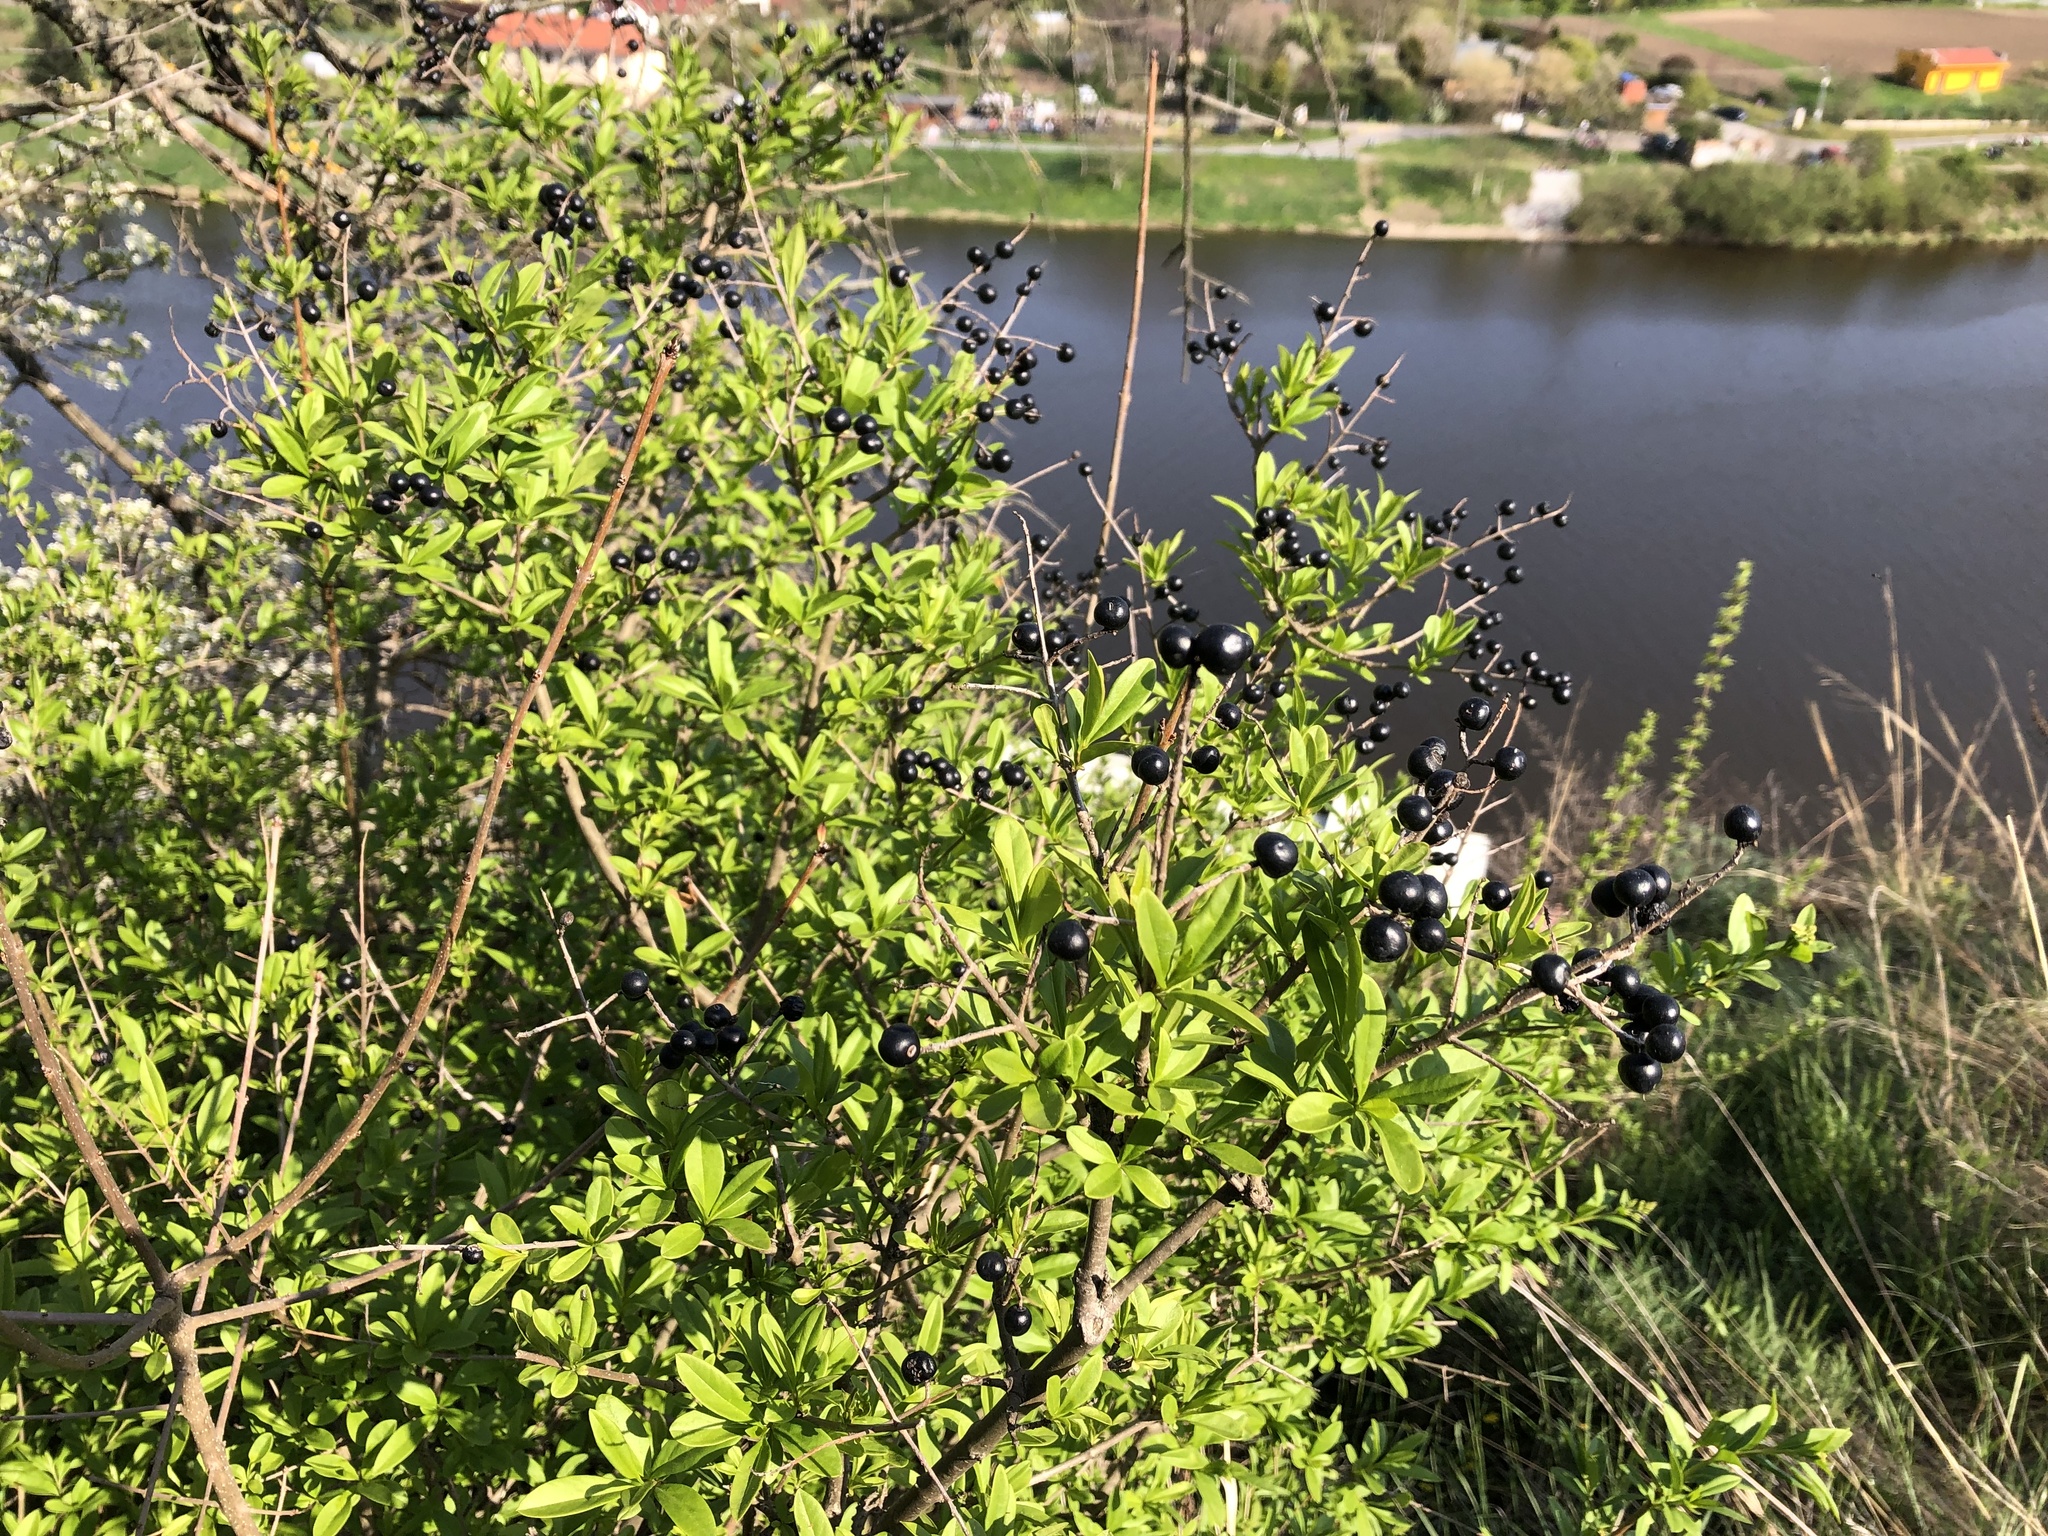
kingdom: Plantae
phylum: Tracheophyta
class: Magnoliopsida
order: Lamiales
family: Oleaceae
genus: Ligustrum
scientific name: Ligustrum vulgare
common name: Wild privet
